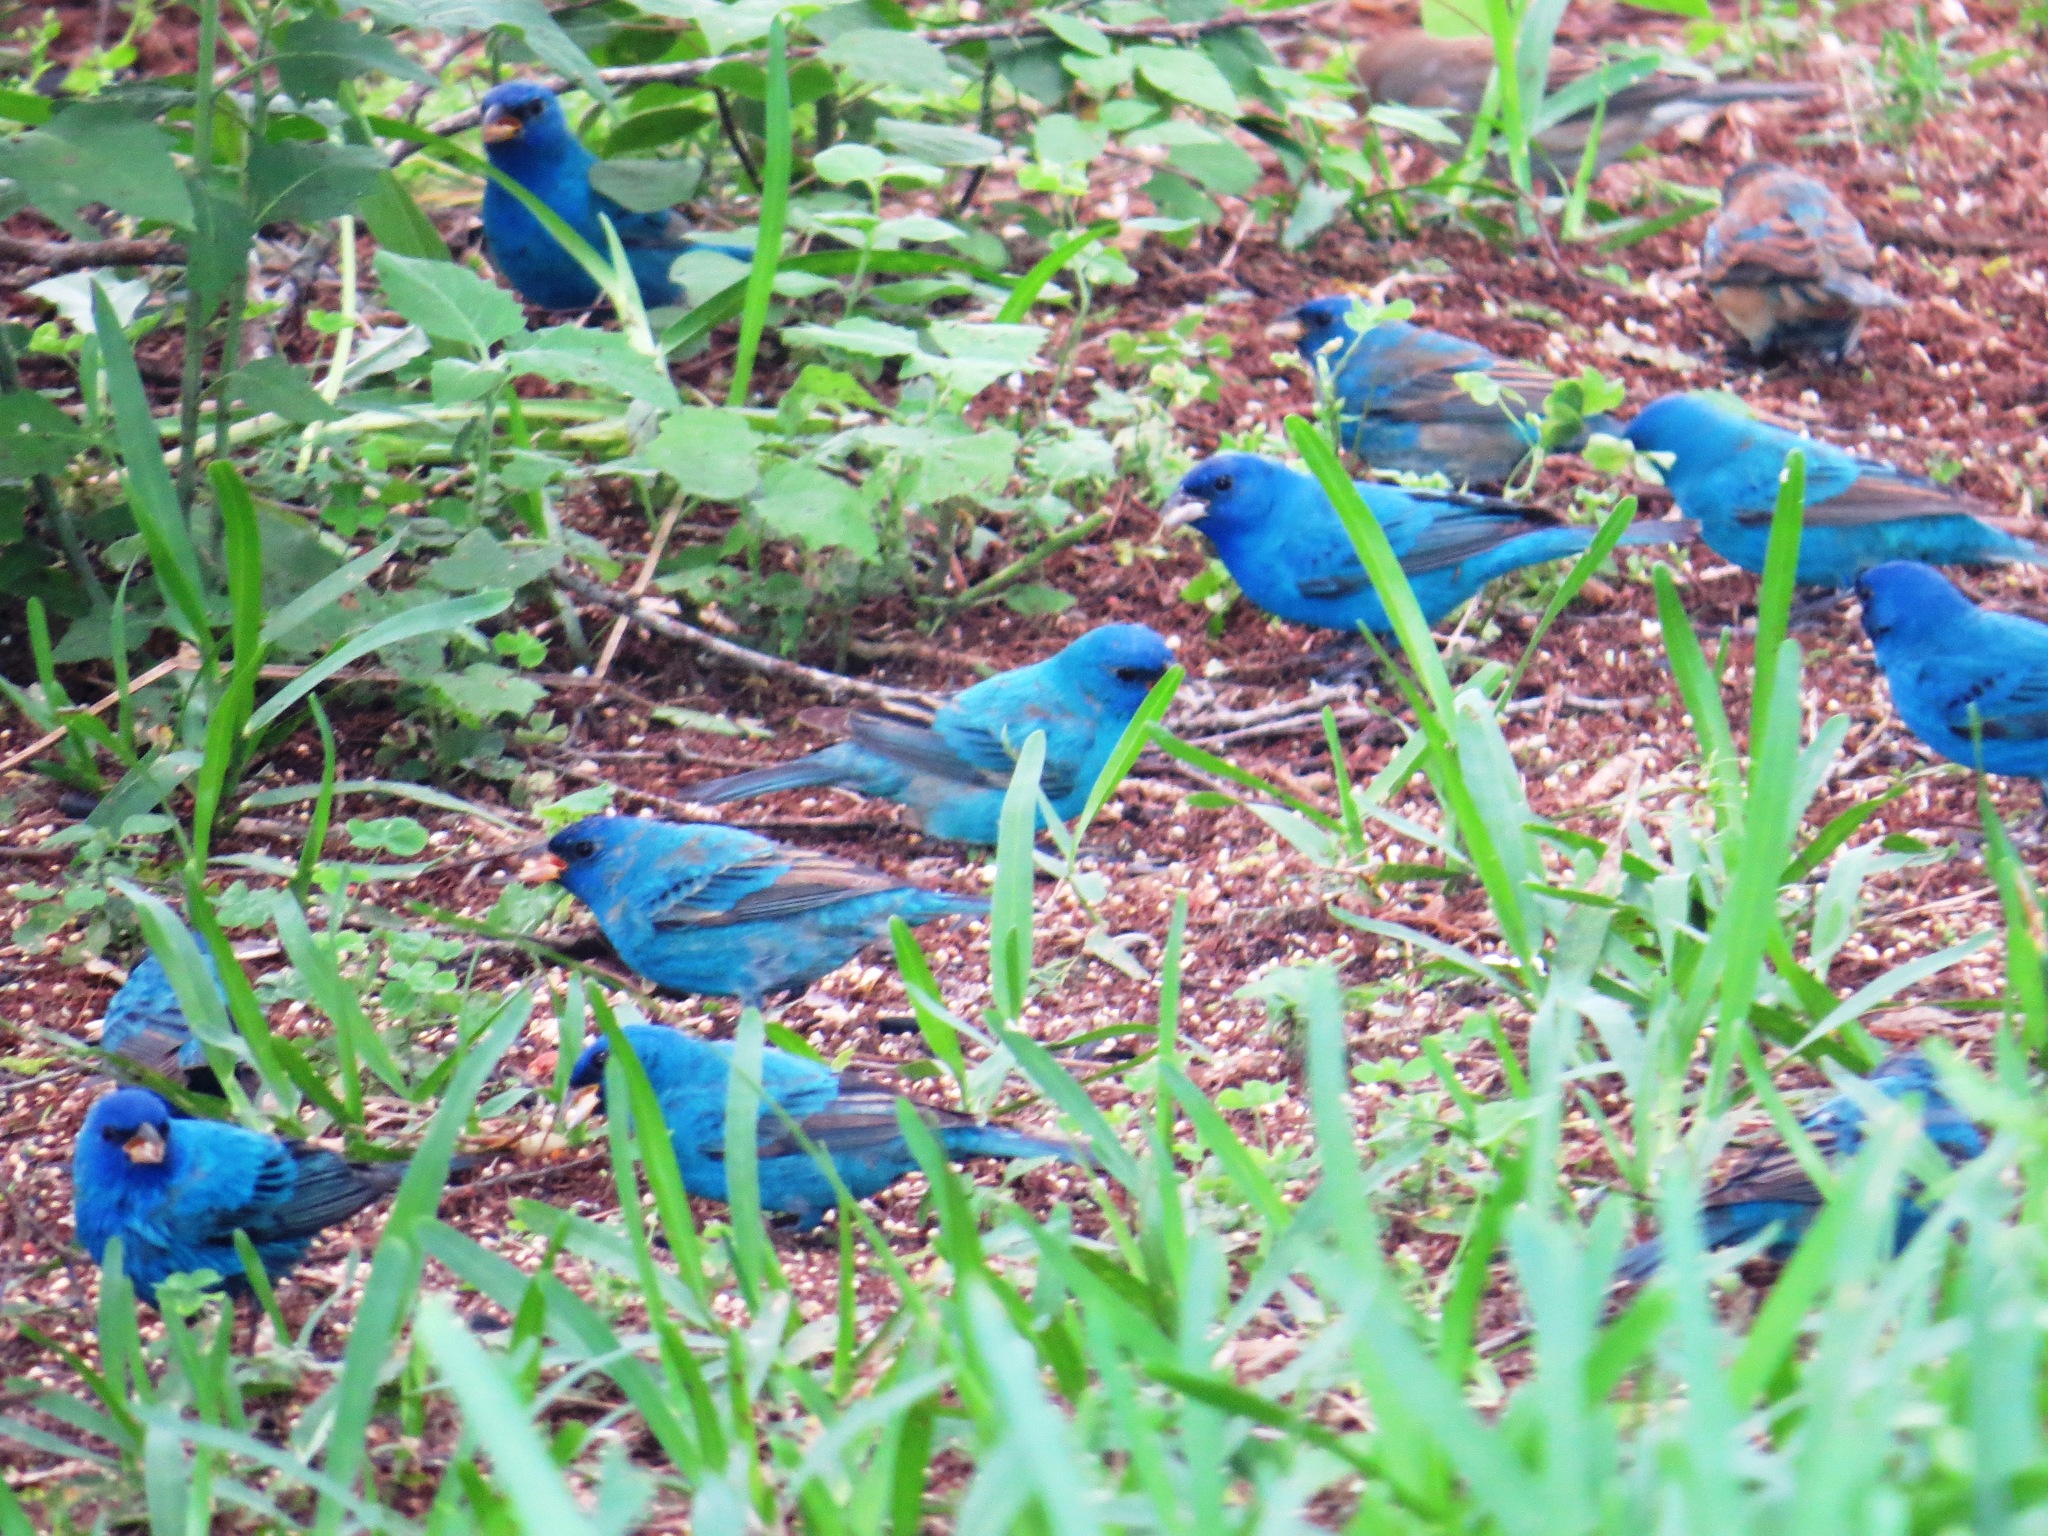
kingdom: Animalia
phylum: Chordata
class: Aves
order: Passeriformes
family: Cardinalidae
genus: Passerina
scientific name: Passerina cyanea
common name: Indigo bunting
